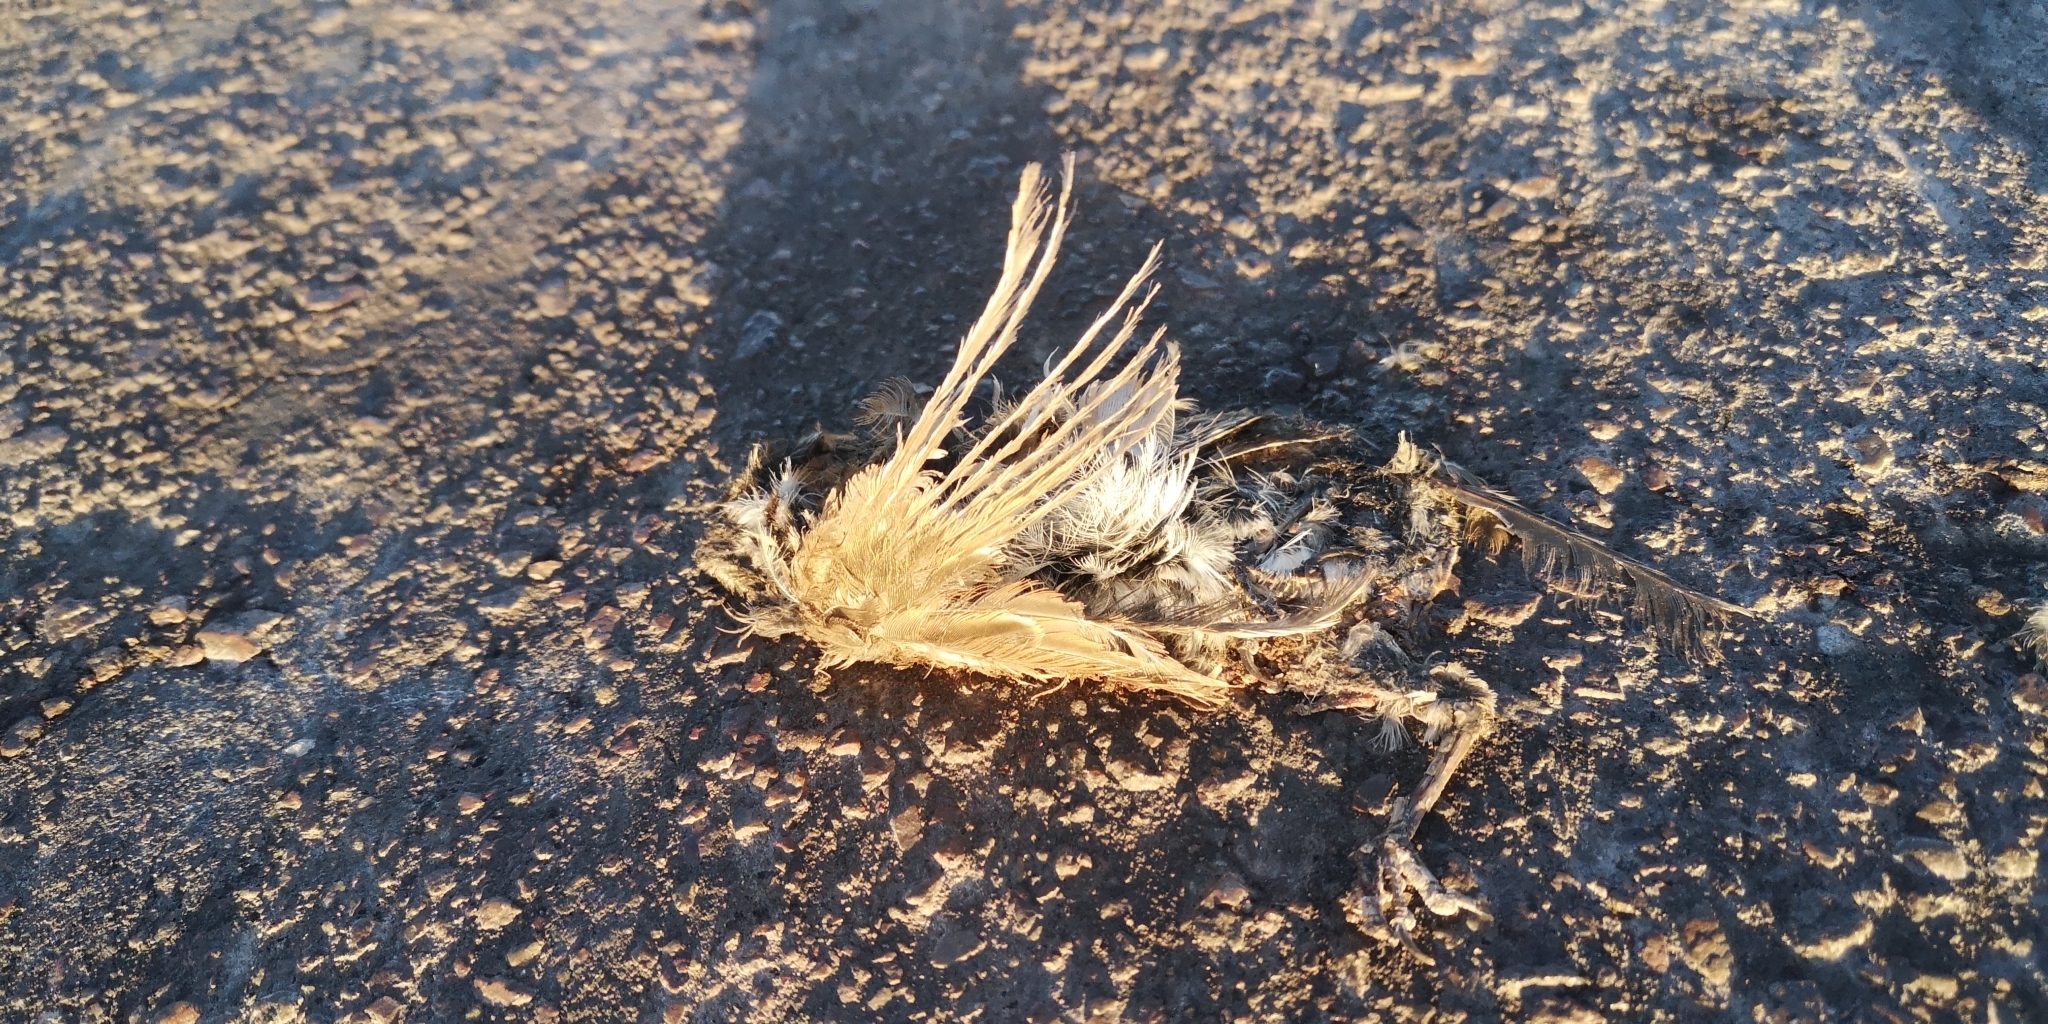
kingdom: Animalia
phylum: Chordata
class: Aves
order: Passeriformes
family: Passerellidae
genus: Zonotrichia
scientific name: Zonotrichia capensis
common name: Rufous-collared sparrow
